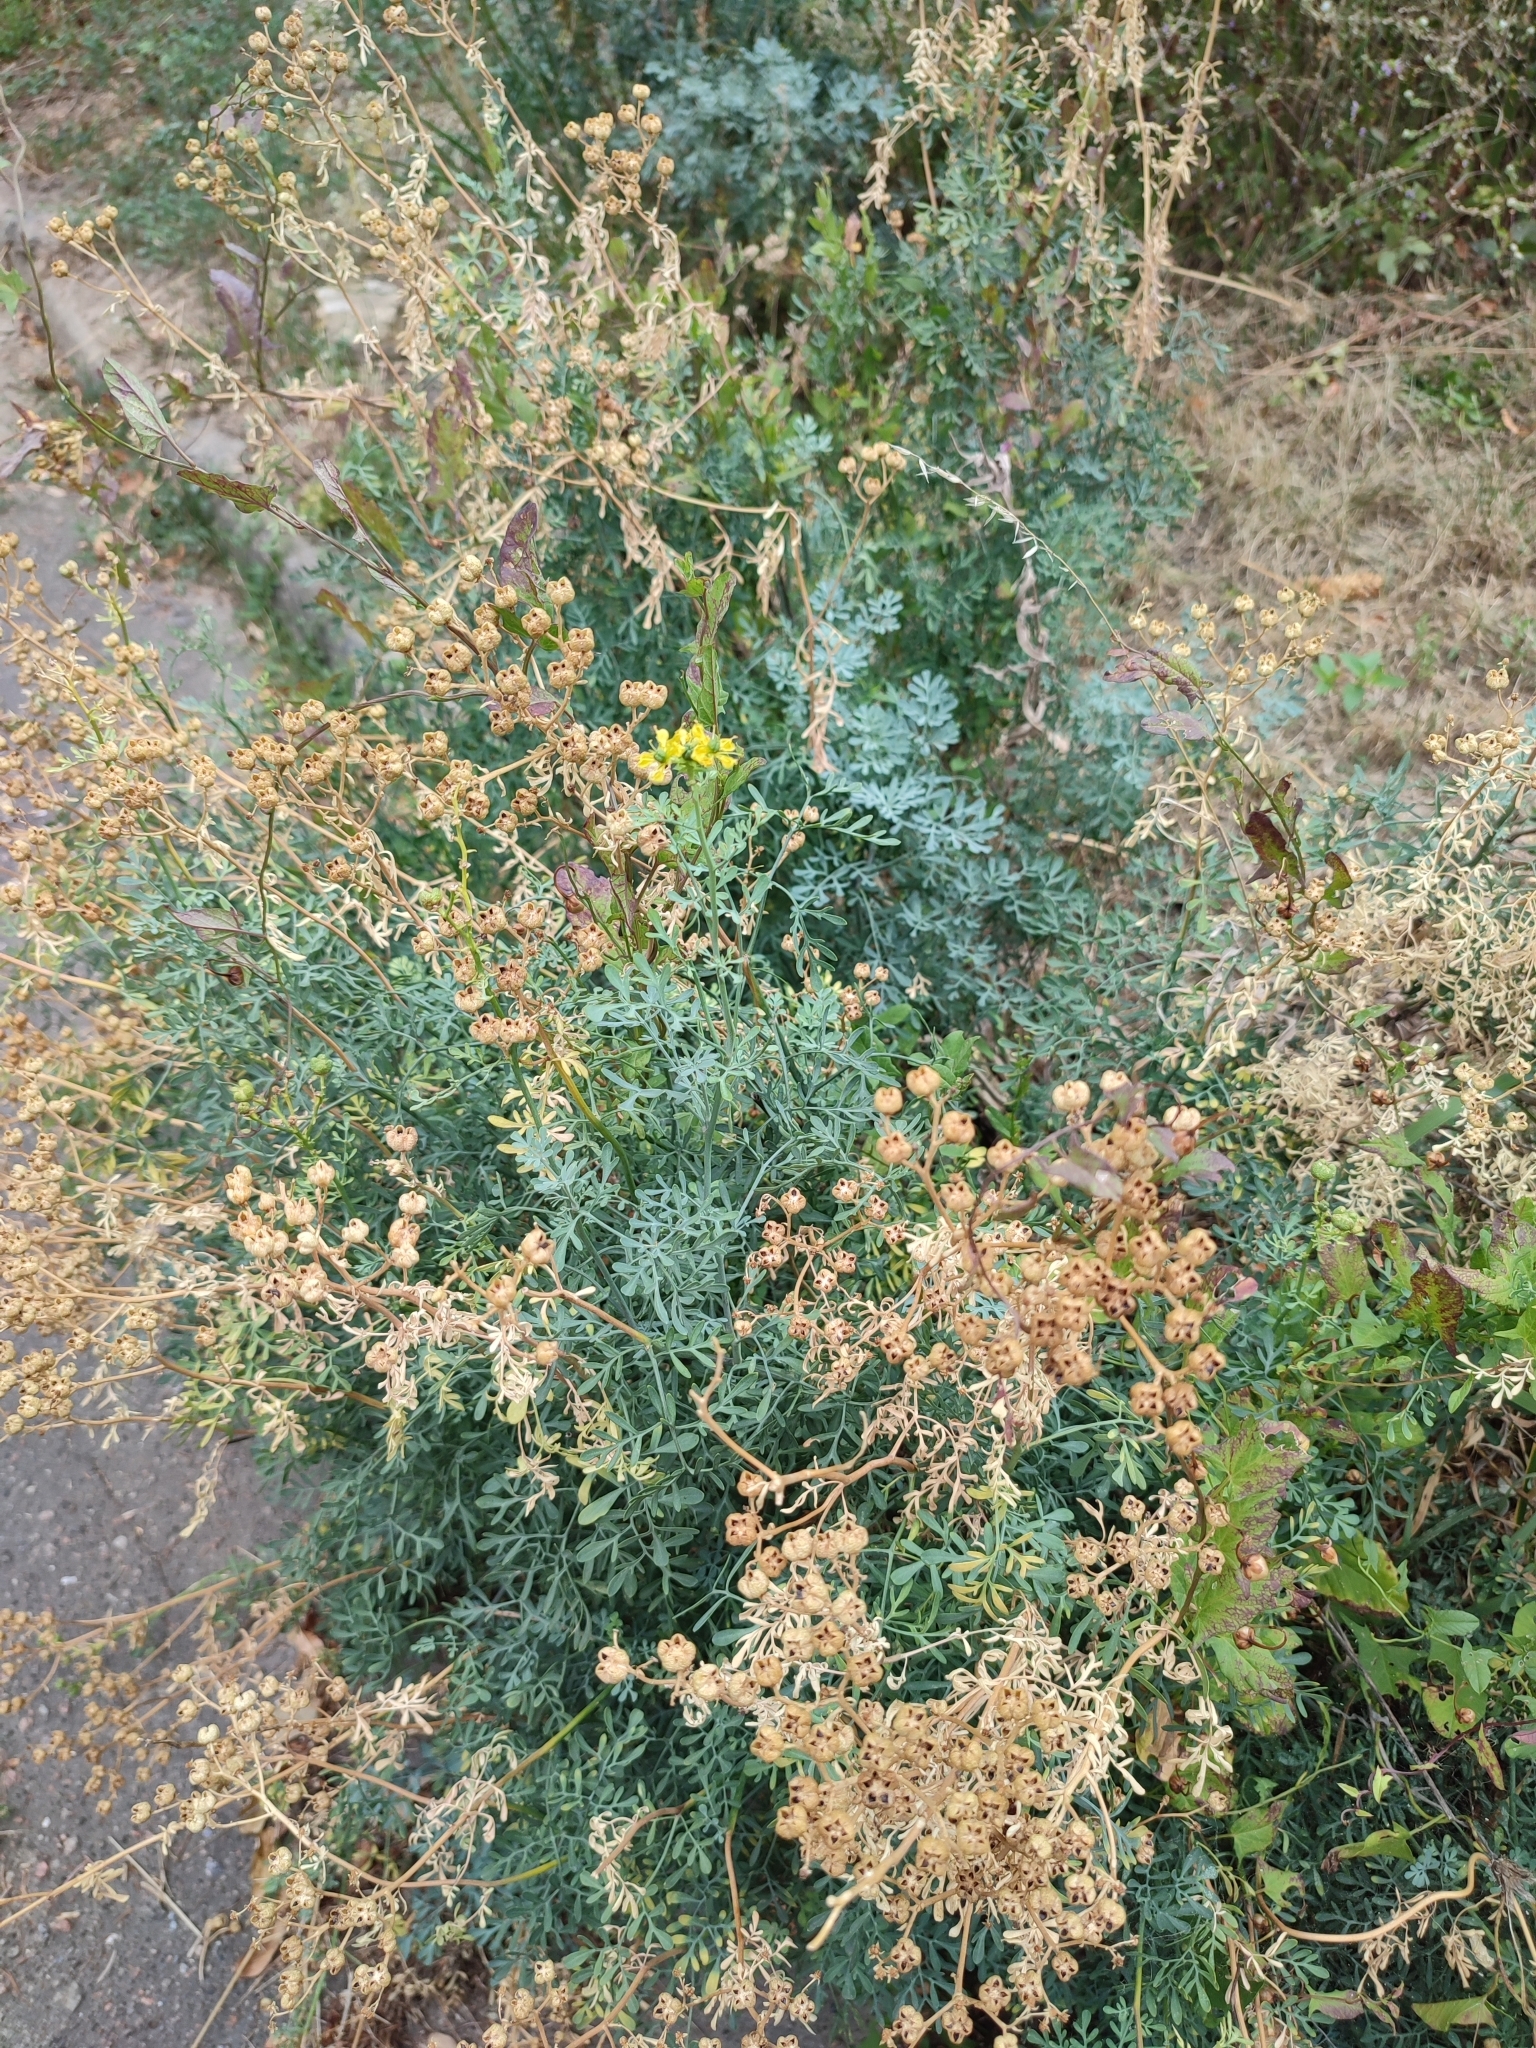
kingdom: Plantae
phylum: Tracheophyta
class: Magnoliopsida
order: Sapindales
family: Rutaceae
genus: Ruta
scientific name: Ruta graveolens
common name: Common rue
